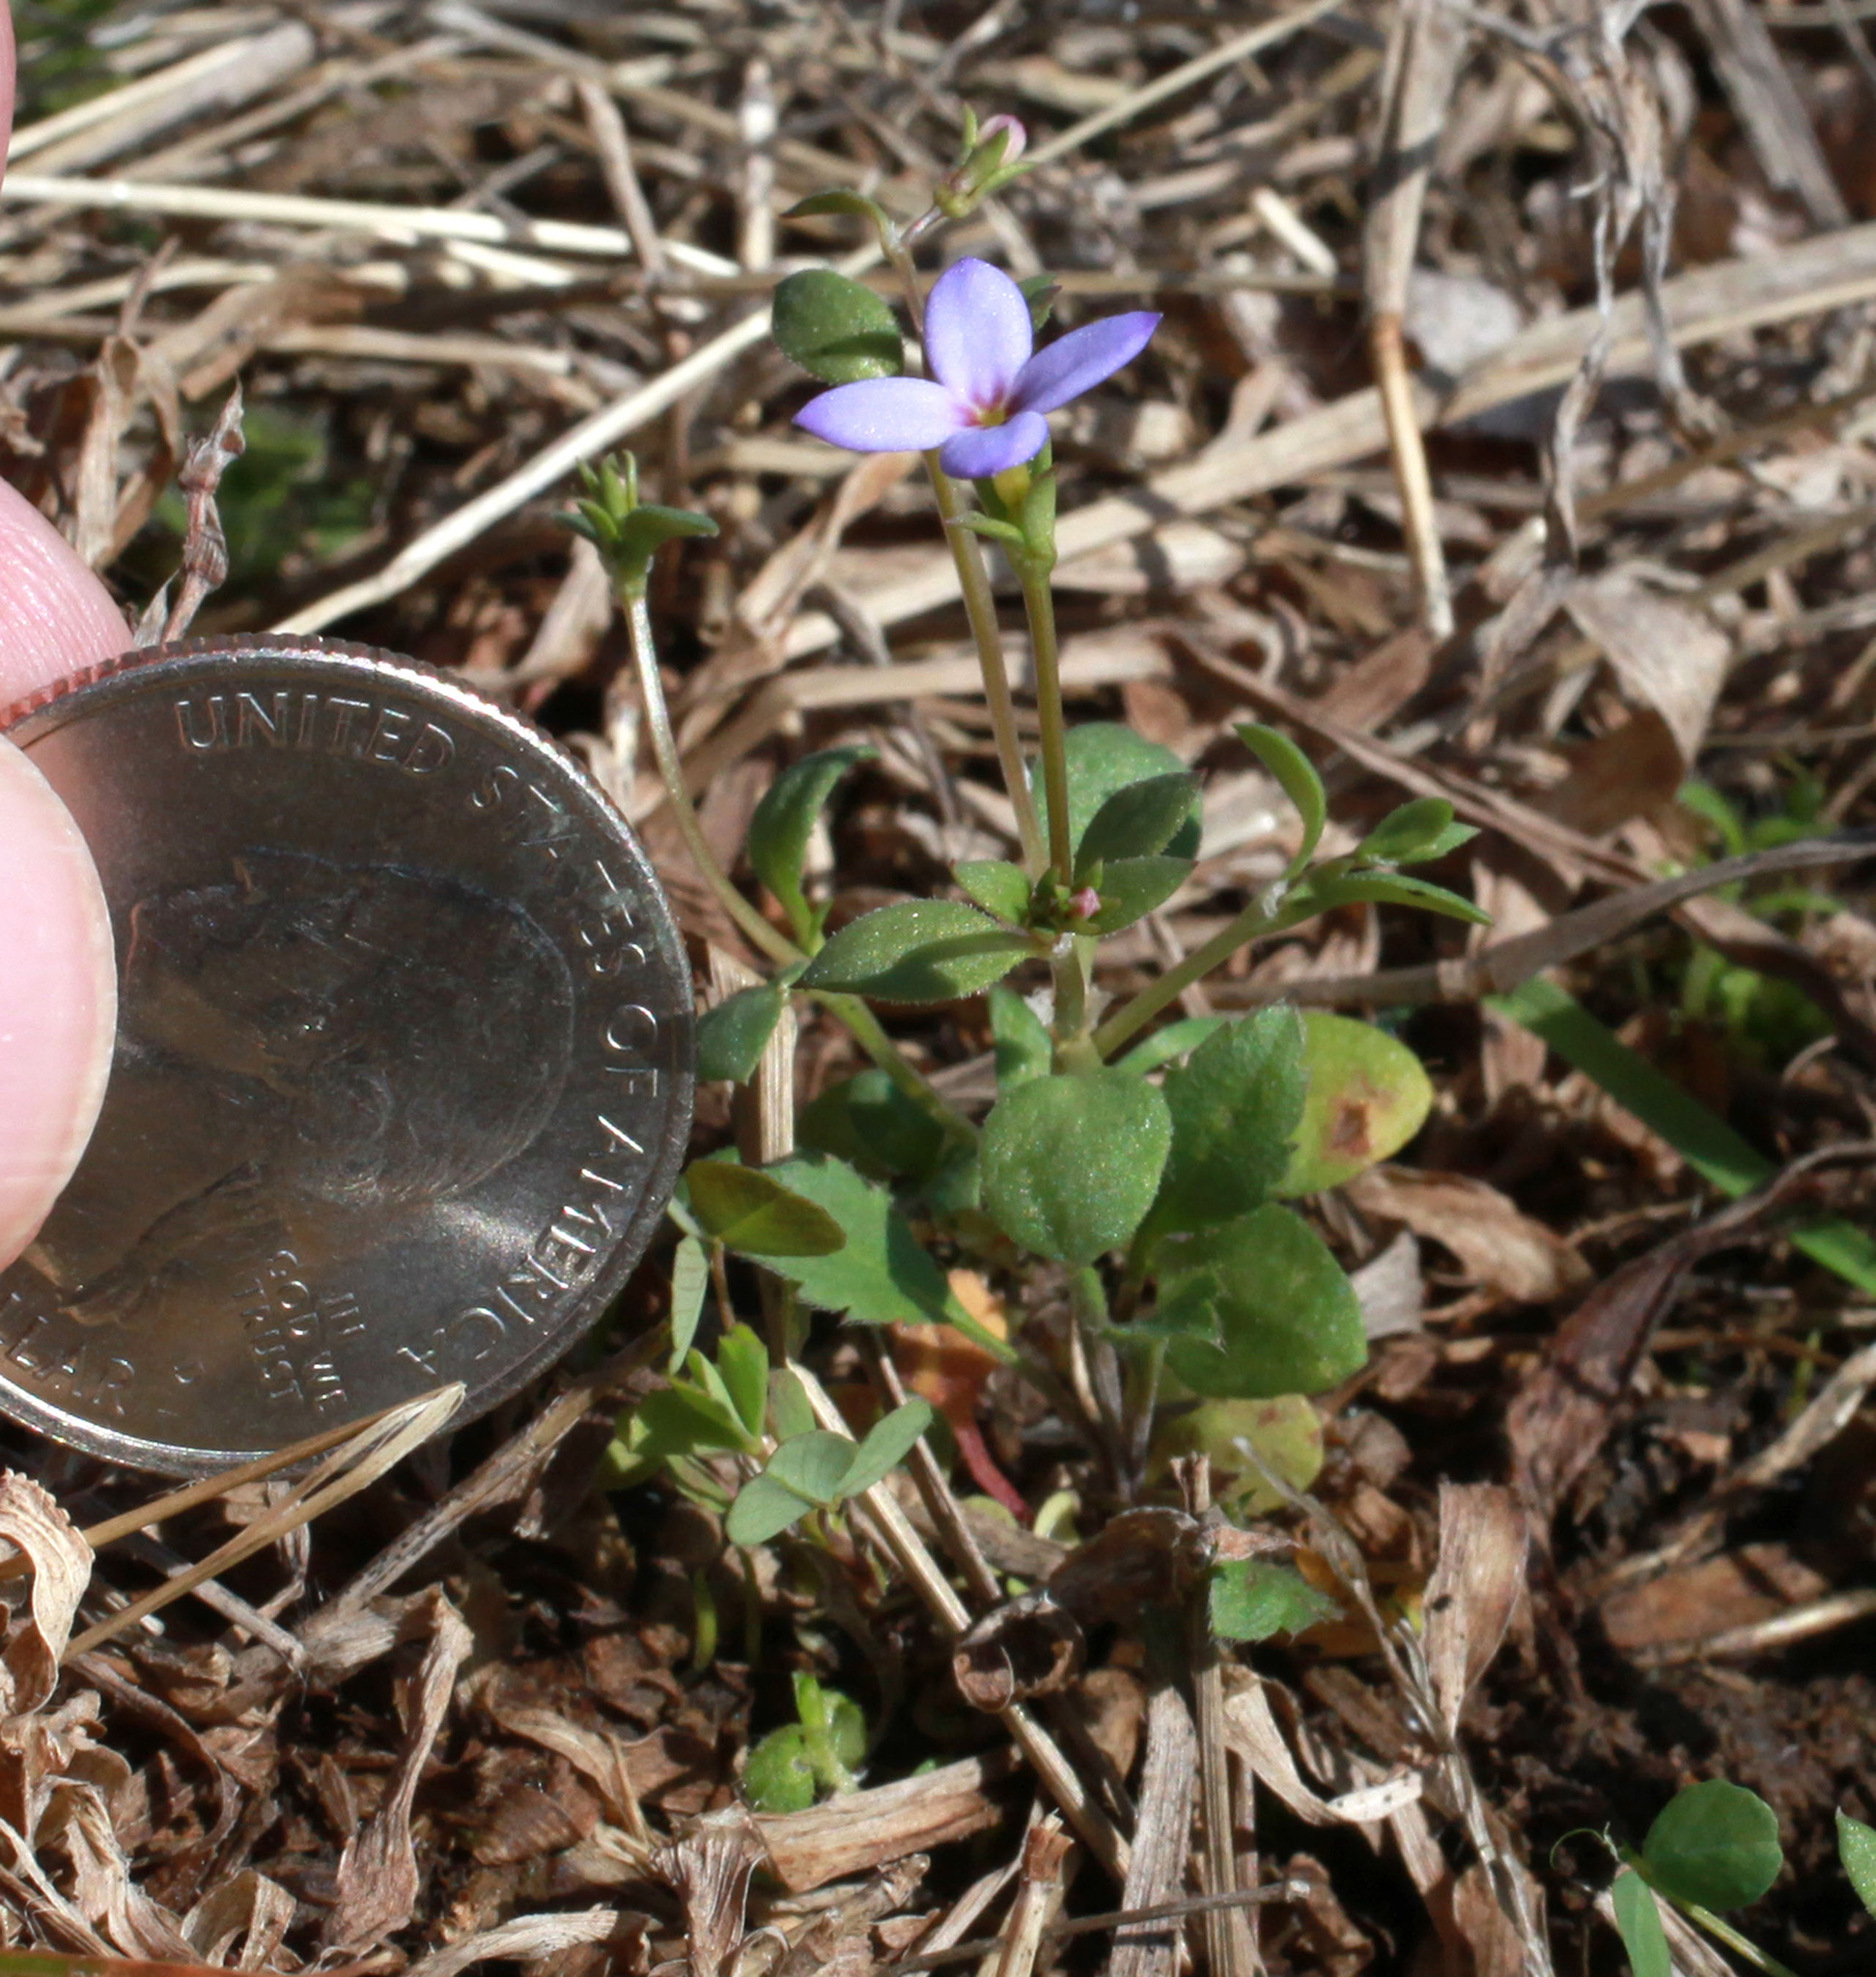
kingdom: Plantae
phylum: Tracheophyta
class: Magnoliopsida
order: Gentianales
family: Rubiaceae
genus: Houstonia
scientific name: Houstonia pusilla
